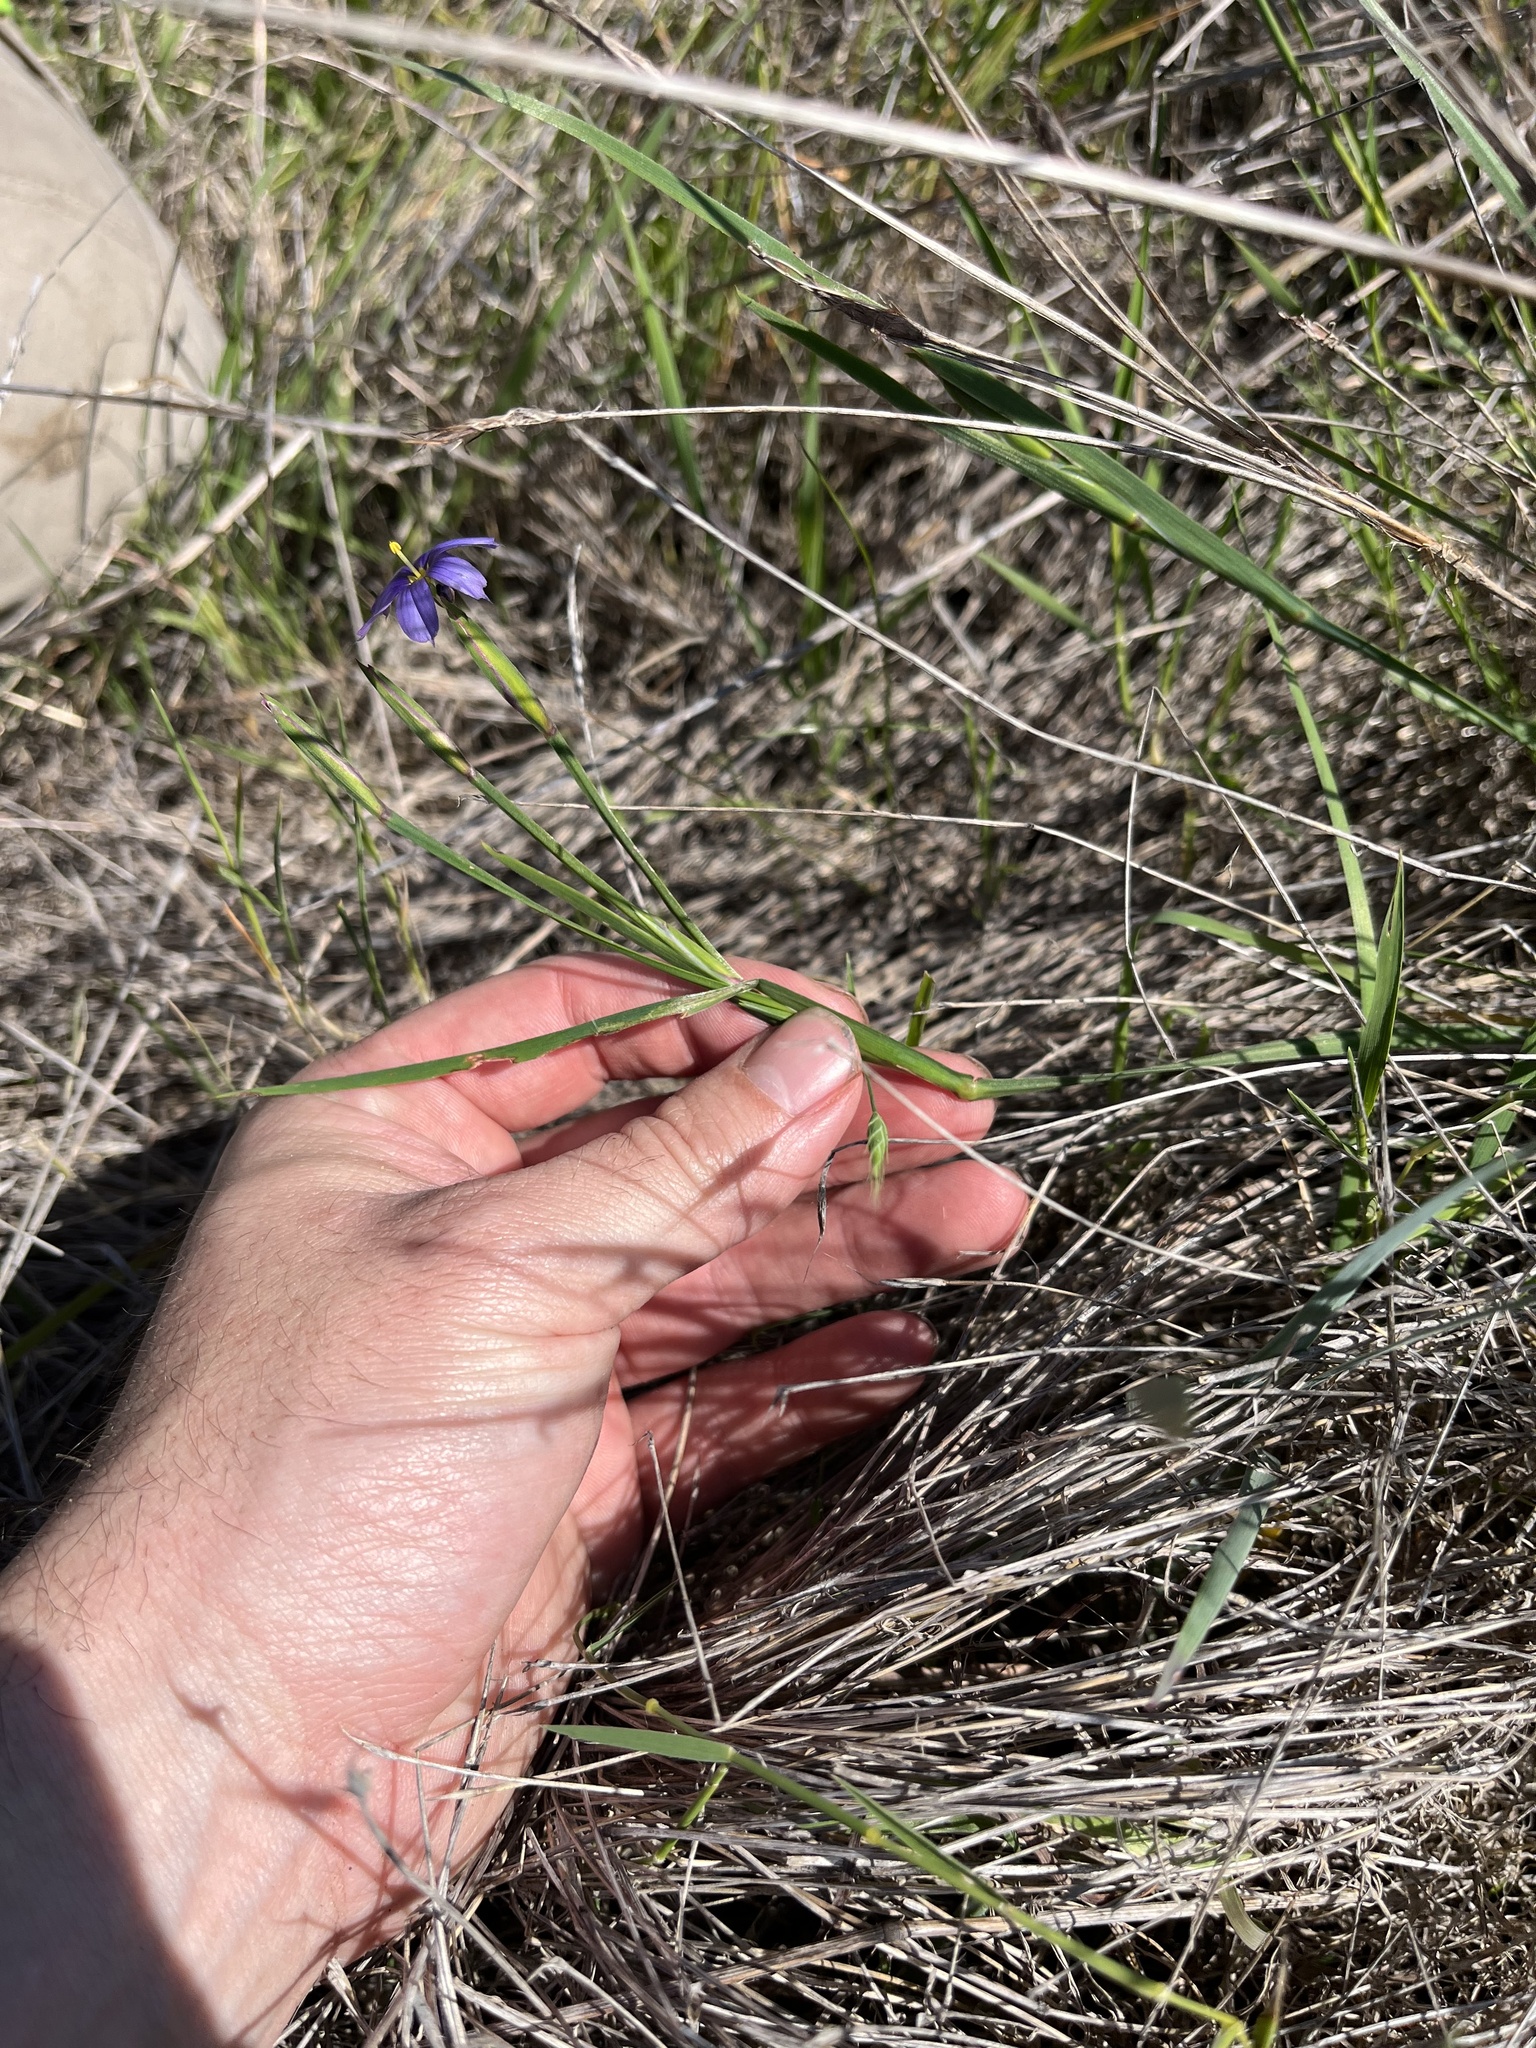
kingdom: Plantae
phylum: Tracheophyta
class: Liliopsida
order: Asparagales
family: Iridaceae
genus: Sisyrinchium
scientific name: Sisyrinchium bellum
